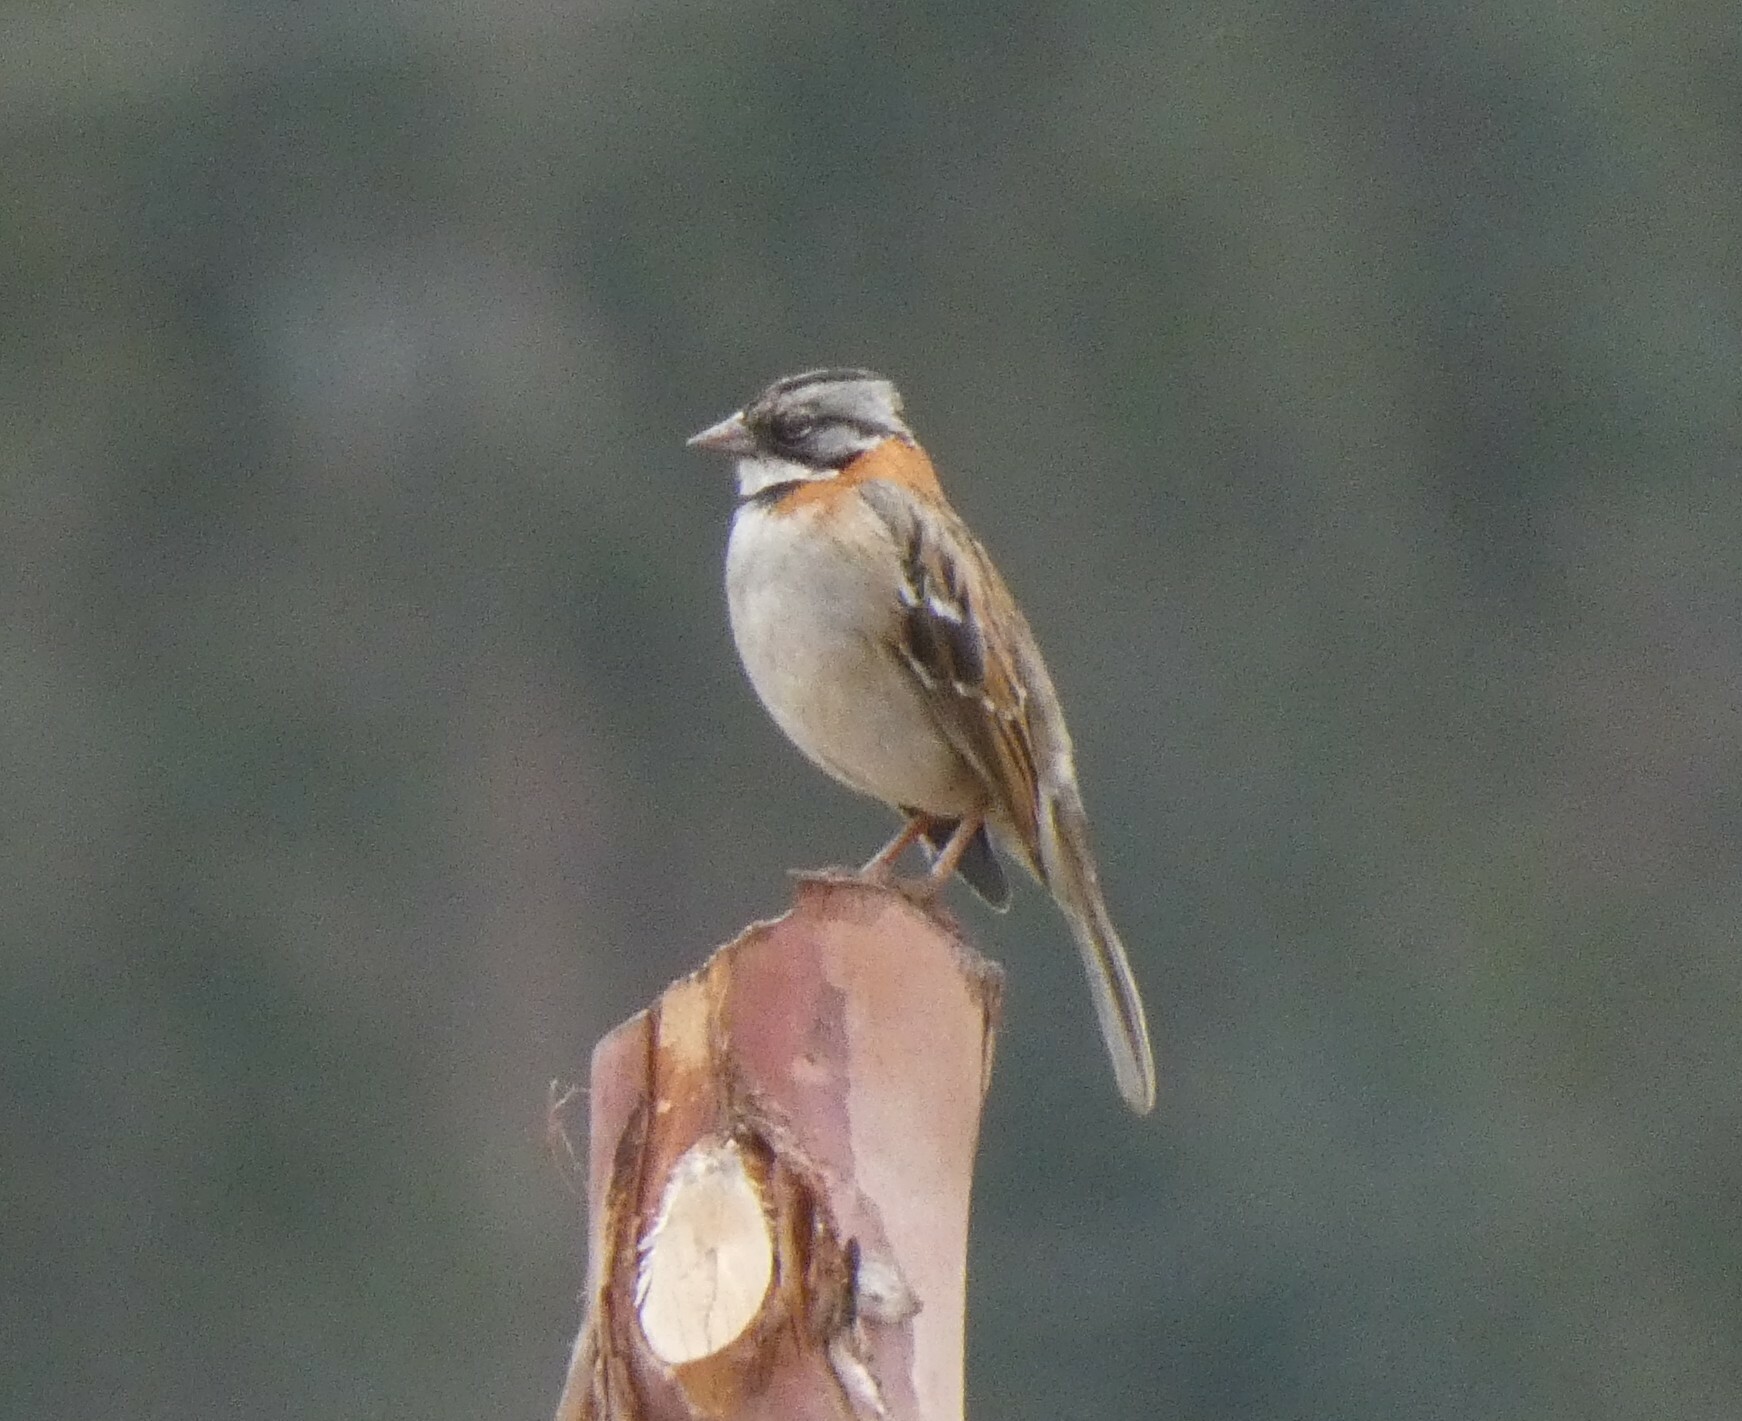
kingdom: Animalia
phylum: Chordata
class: Aves
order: Passeriformes
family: Passerellidae
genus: Zonotrichia
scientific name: Zonotrichia capensis
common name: Rufous-collared sparrow
